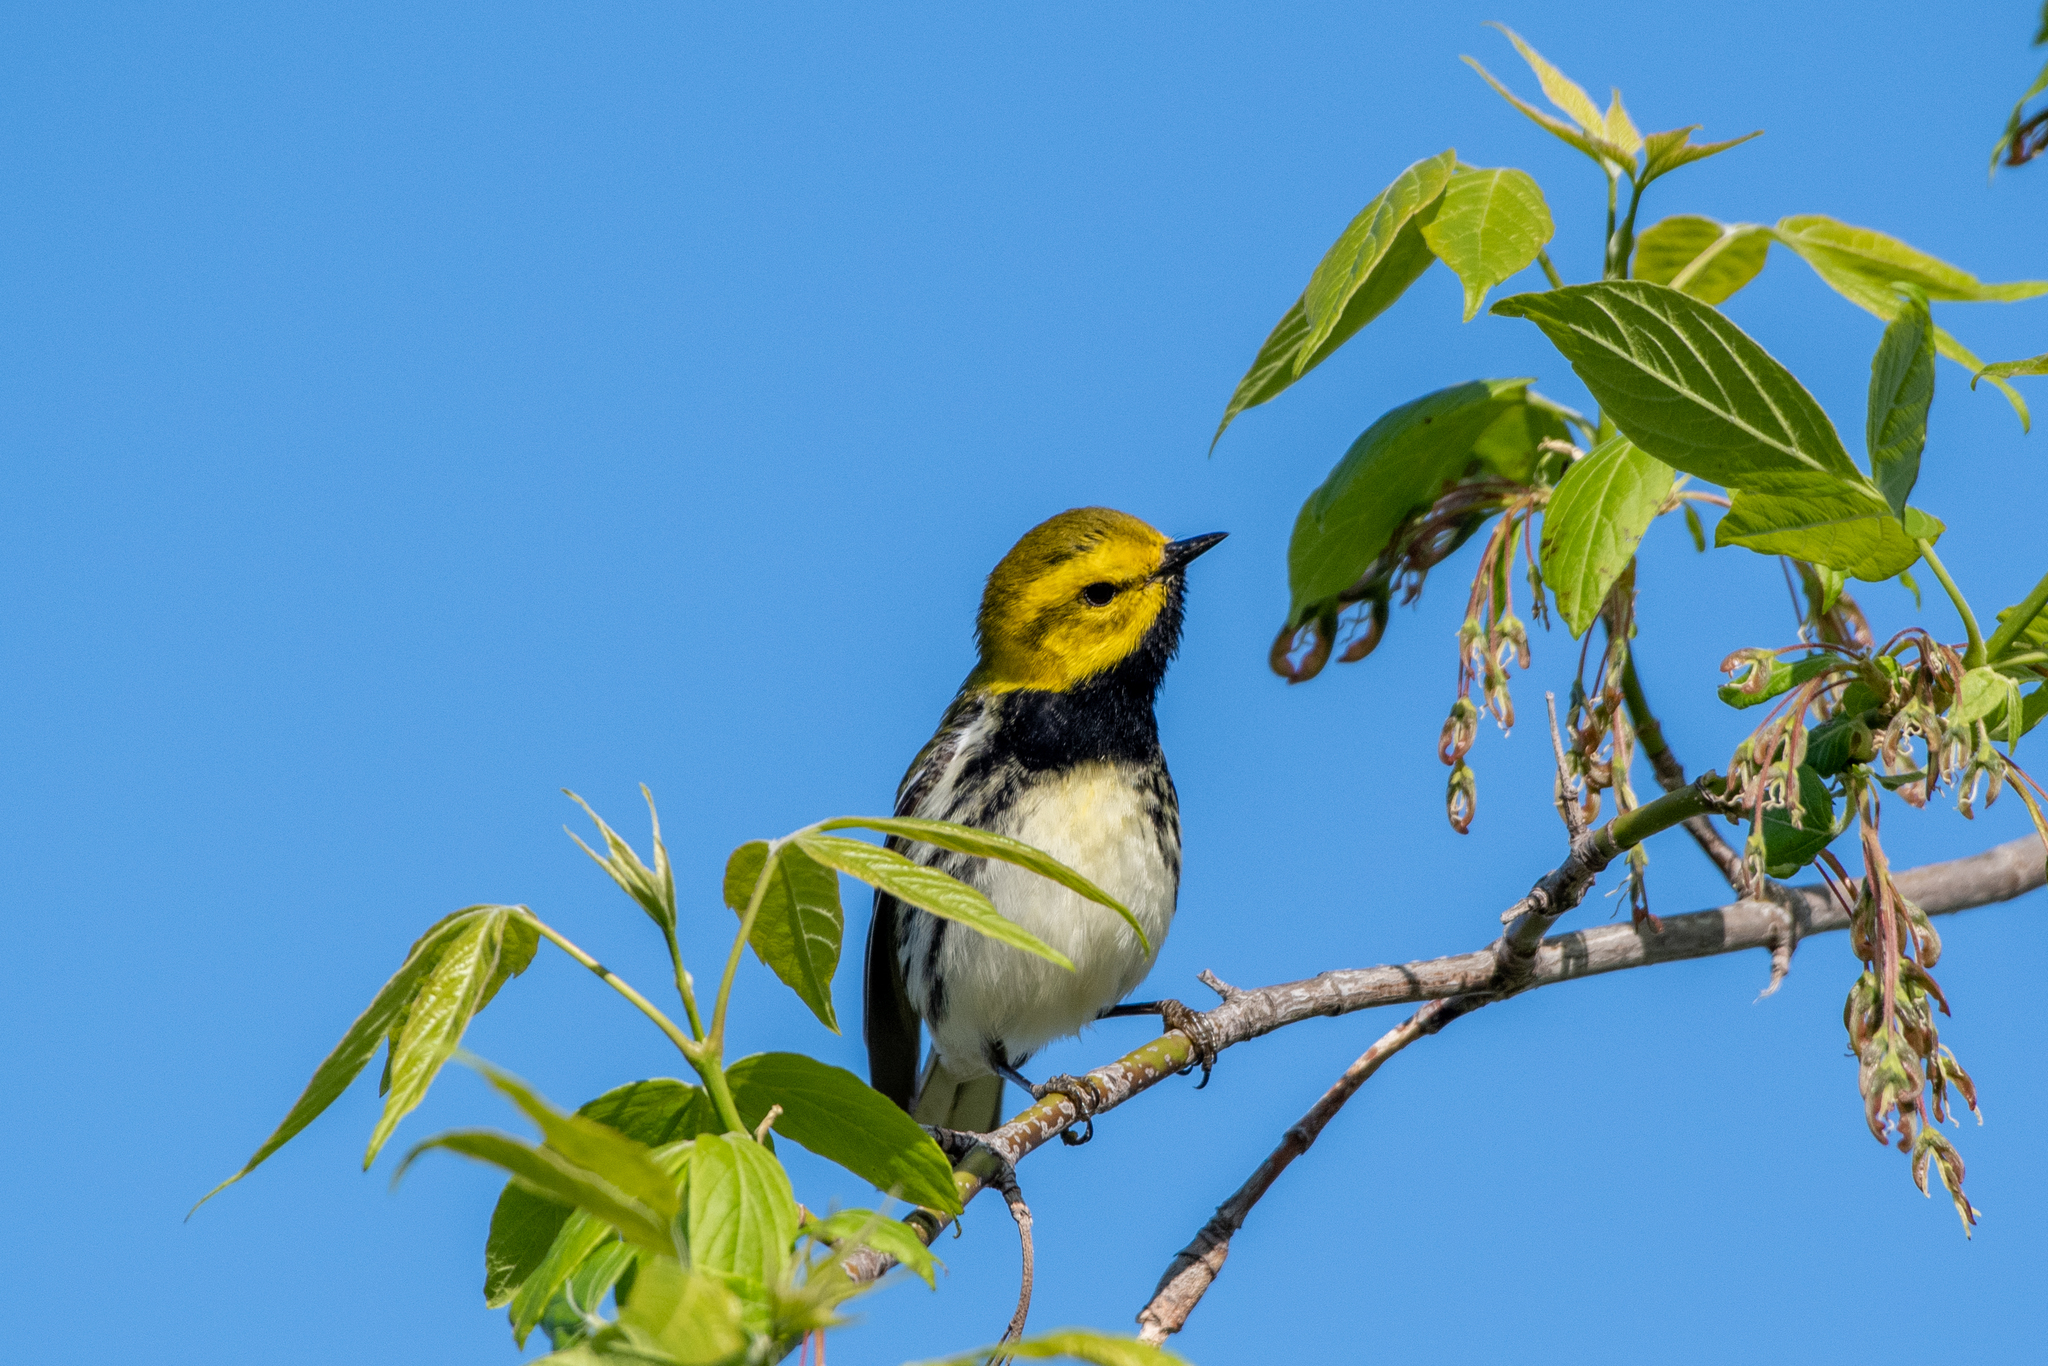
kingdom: Animalia
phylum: Chordata
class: Aves
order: Passeriformes
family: Parulidae
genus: Setophaga
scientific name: Setophaga virens
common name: Black-throated green warbler
